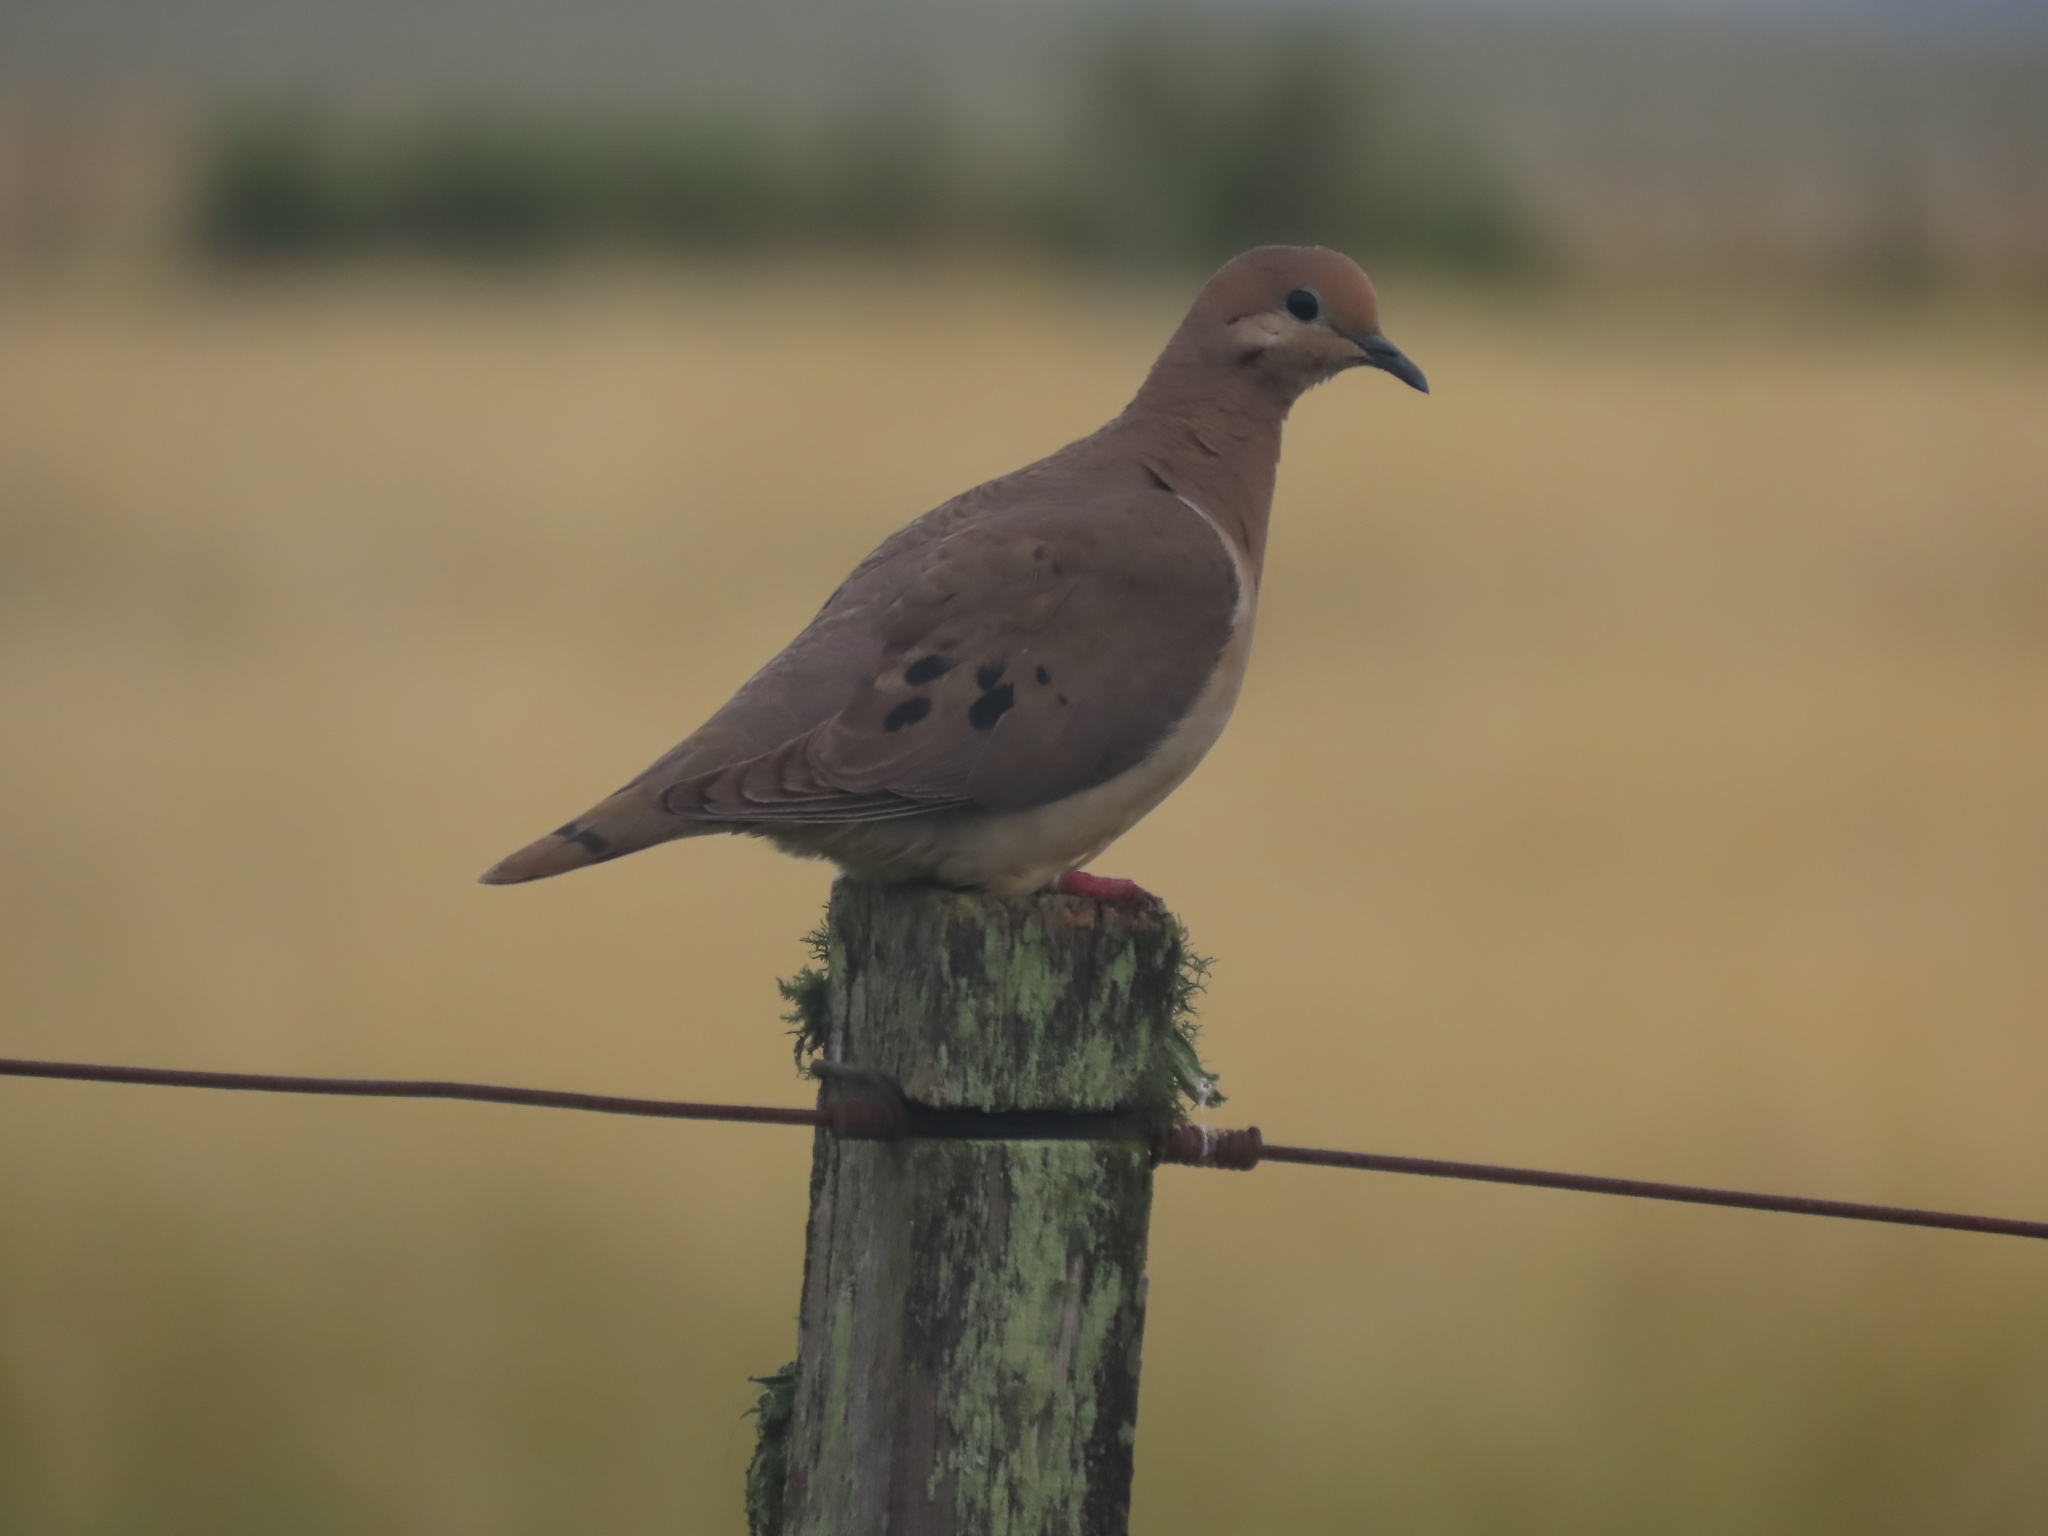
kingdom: Animalia
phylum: Chordata
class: Aves
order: Columbiformes
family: Columbidae
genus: Zenaida
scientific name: Zenaida auriculata
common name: Eared dove
